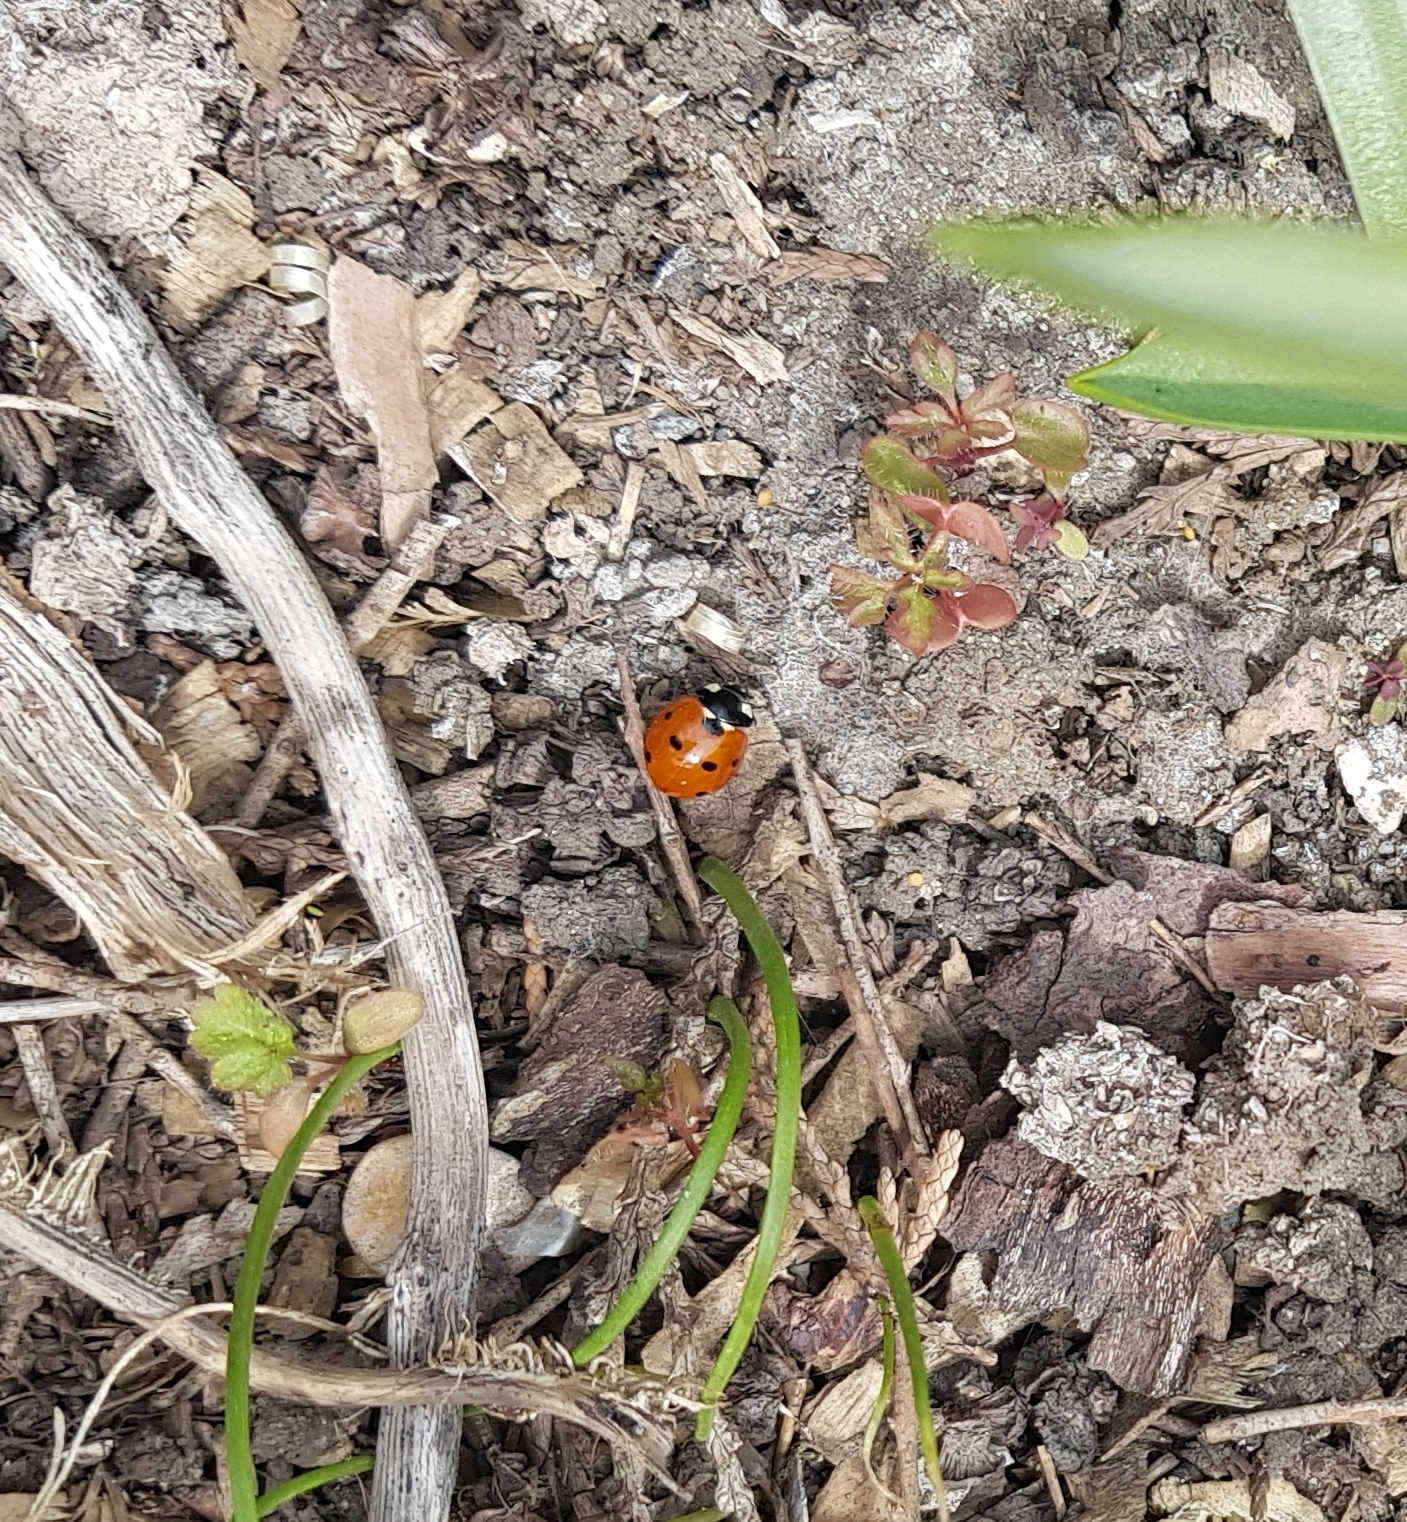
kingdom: Animalia
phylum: Arthropoda
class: Insecta
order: Coleoptera
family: Coccinellidae
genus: Coccinella
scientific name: Coccinella septempunctata
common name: Sevenspotted lady beetle
